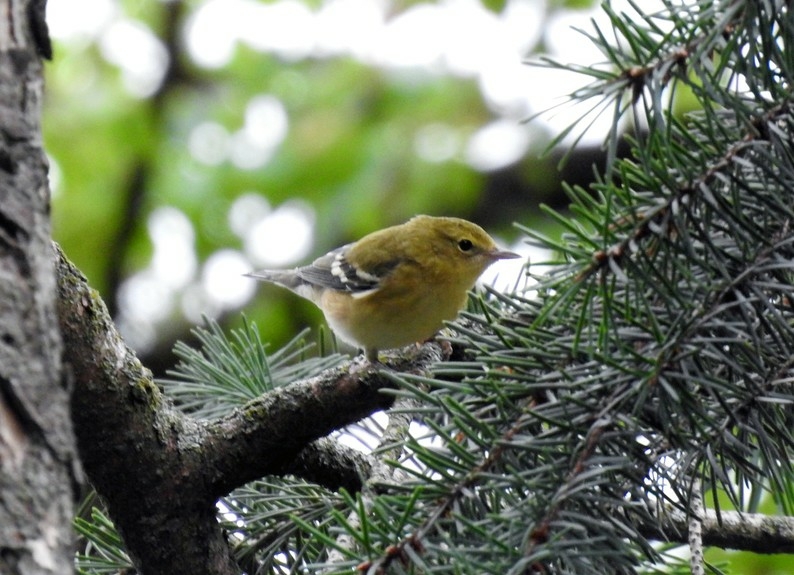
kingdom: Animalia
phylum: Chordata
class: Aves
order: Passeriformes
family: Parulidae
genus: Setophaga
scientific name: Setophaga castanea
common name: Bay-breasted warbler
